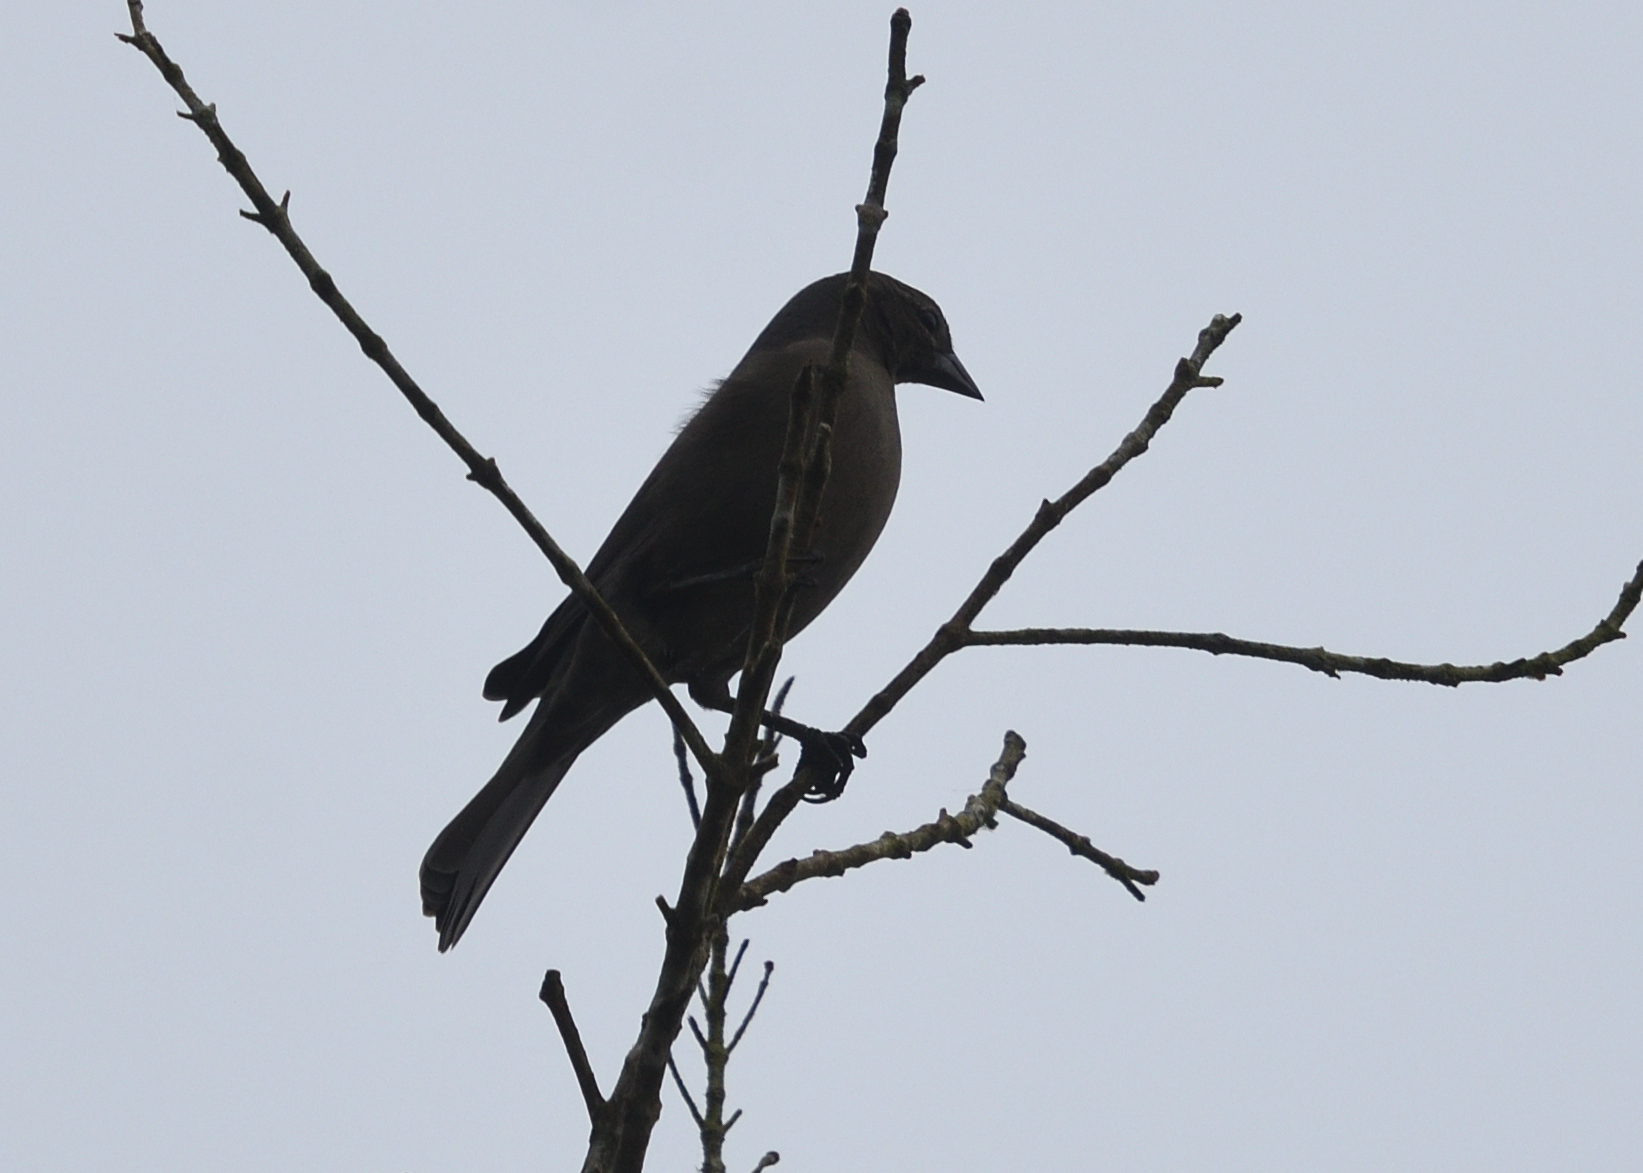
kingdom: Animalia
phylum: Chordata
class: Aves
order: Passeriformes
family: Icteridae
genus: Molothrus
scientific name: Molothrus bonariensis
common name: Shiny cowbird
